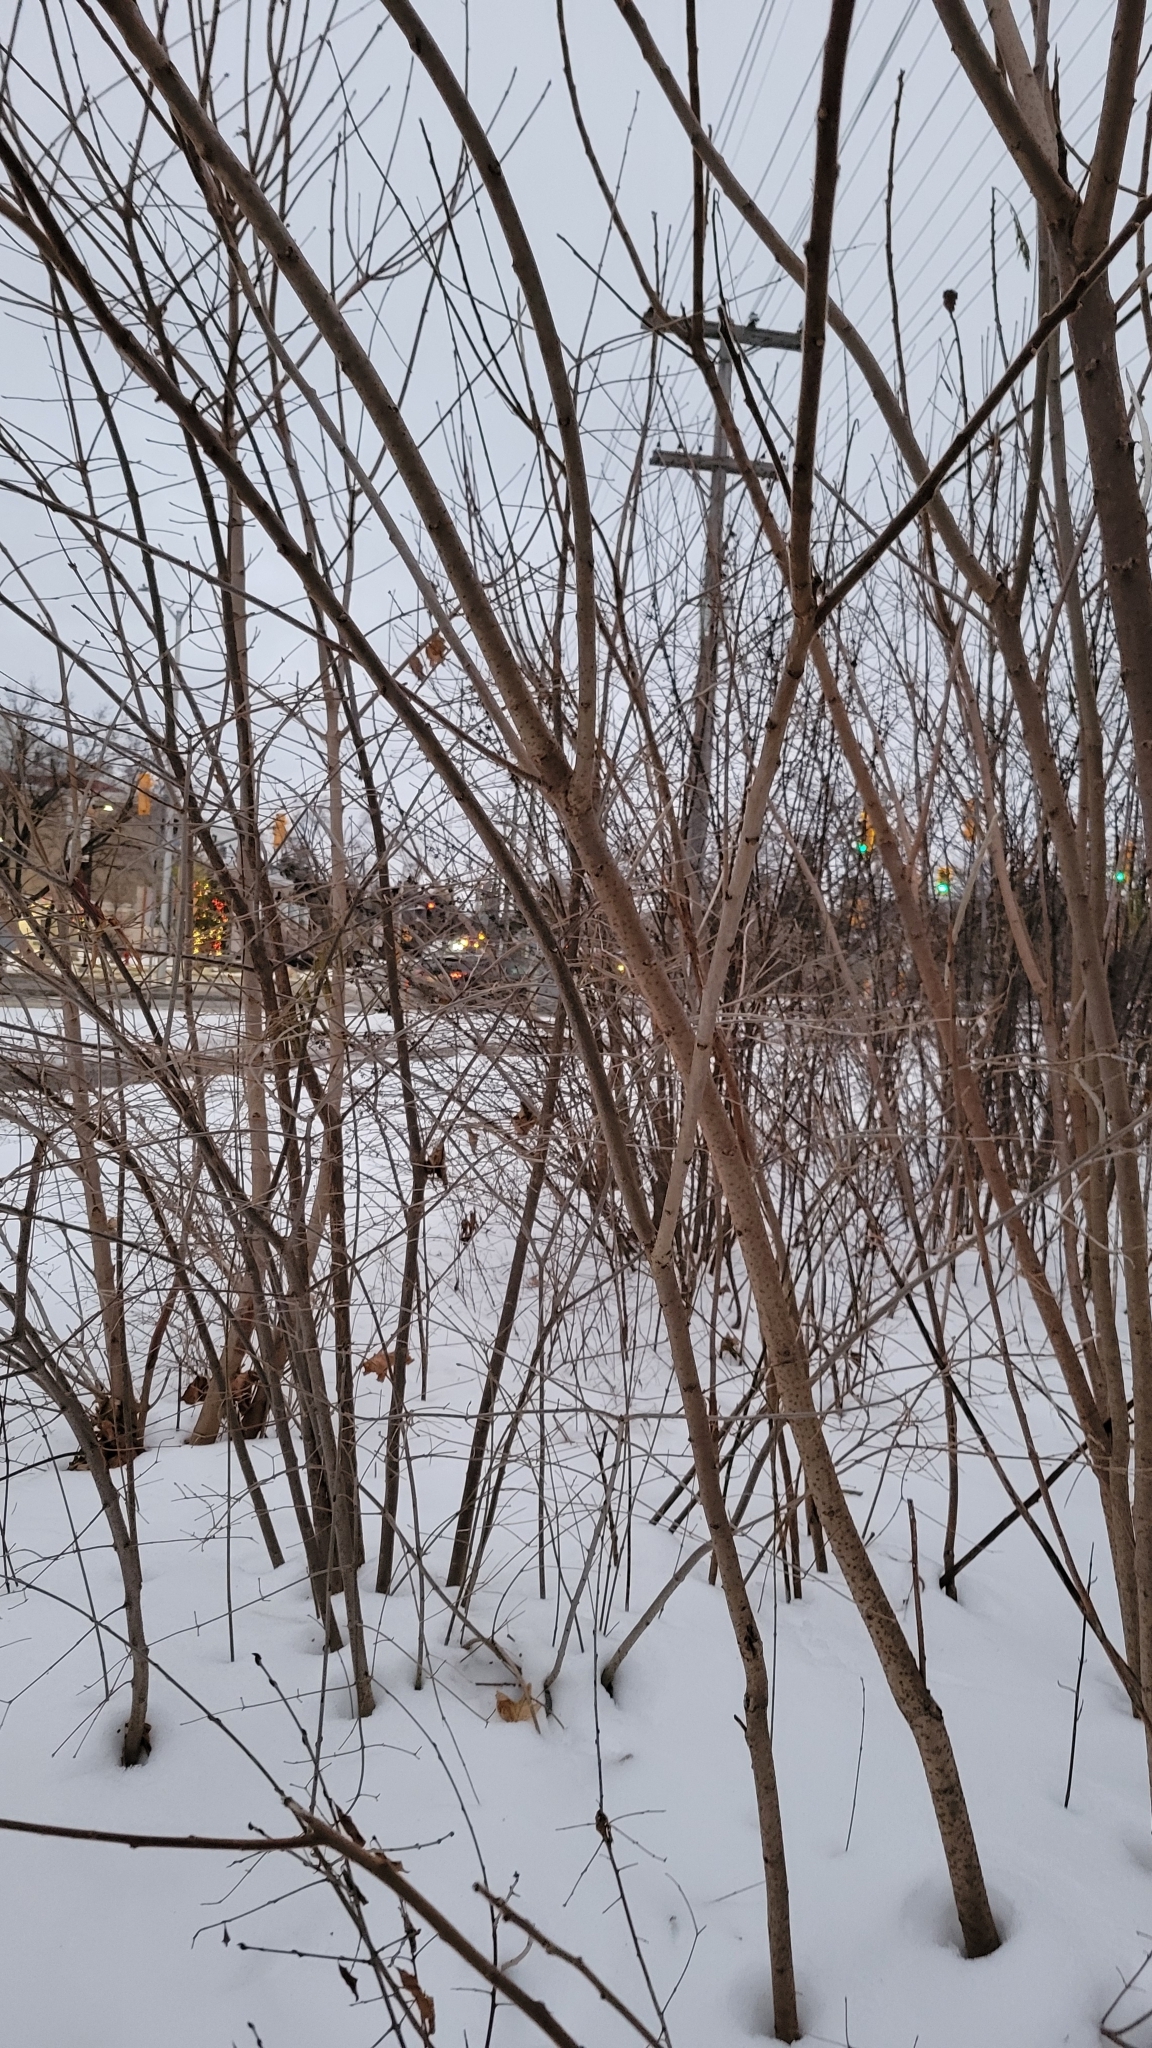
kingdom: Plantae
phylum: Tracheophyta
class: Magnoliopsida
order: Sapindales
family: Anacardiaceae
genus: Rhus
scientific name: Rhus typhina
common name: Staghorn sumac
